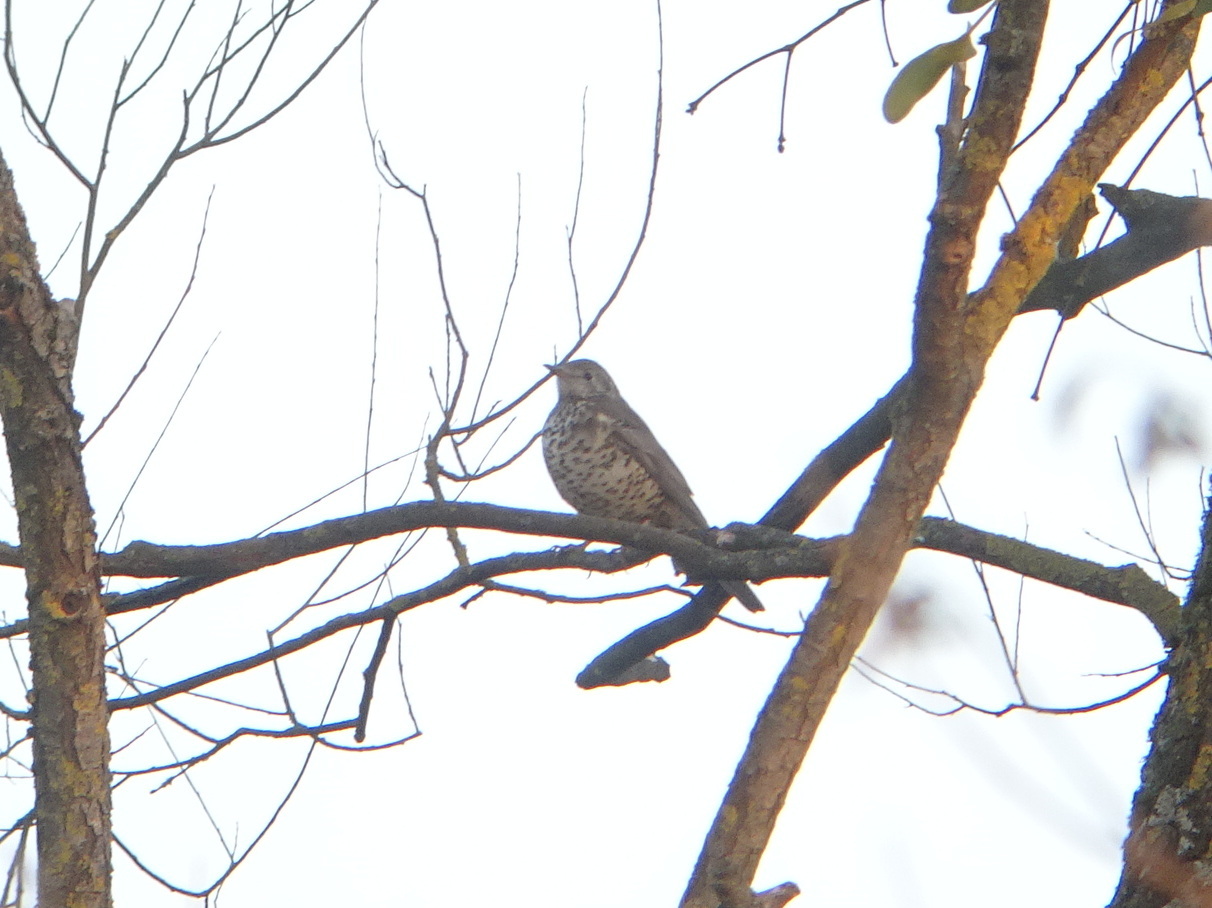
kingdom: Animalia
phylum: Chordata
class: Aves
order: Passeriformes
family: Turdidae
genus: Turdus
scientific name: Turdus viscivorus
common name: Mistle thrush
